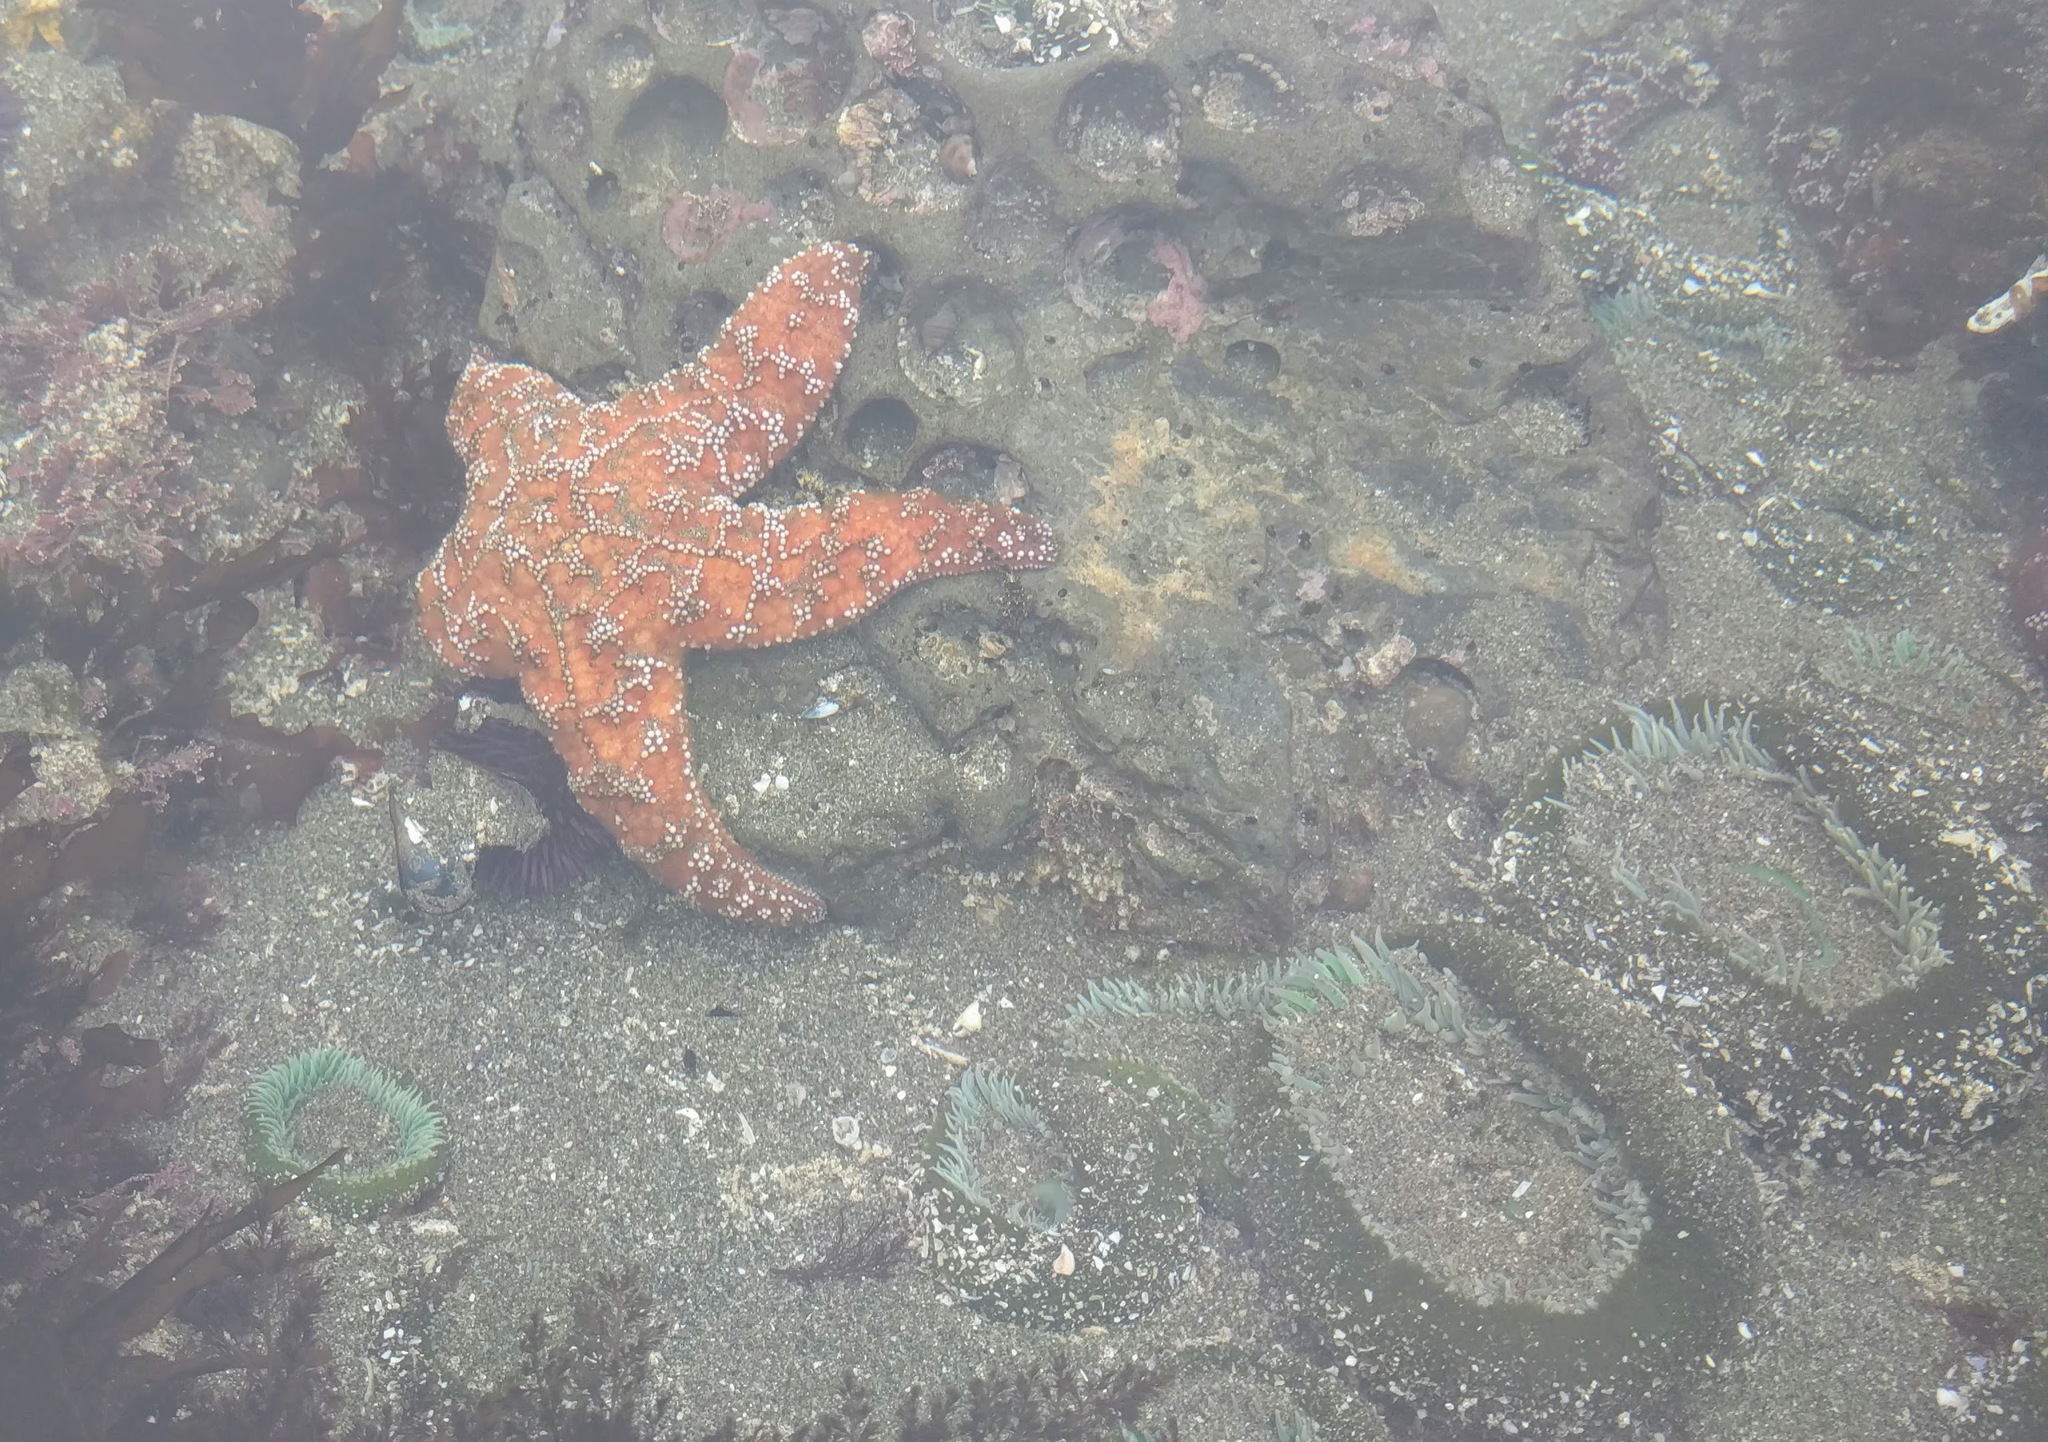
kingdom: Animalia
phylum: Echinodermata
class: Asteroidea
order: Forcipulatida
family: Asteriidae
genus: Pisaster
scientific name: Pisaster ochraceus
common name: Ochre stars
